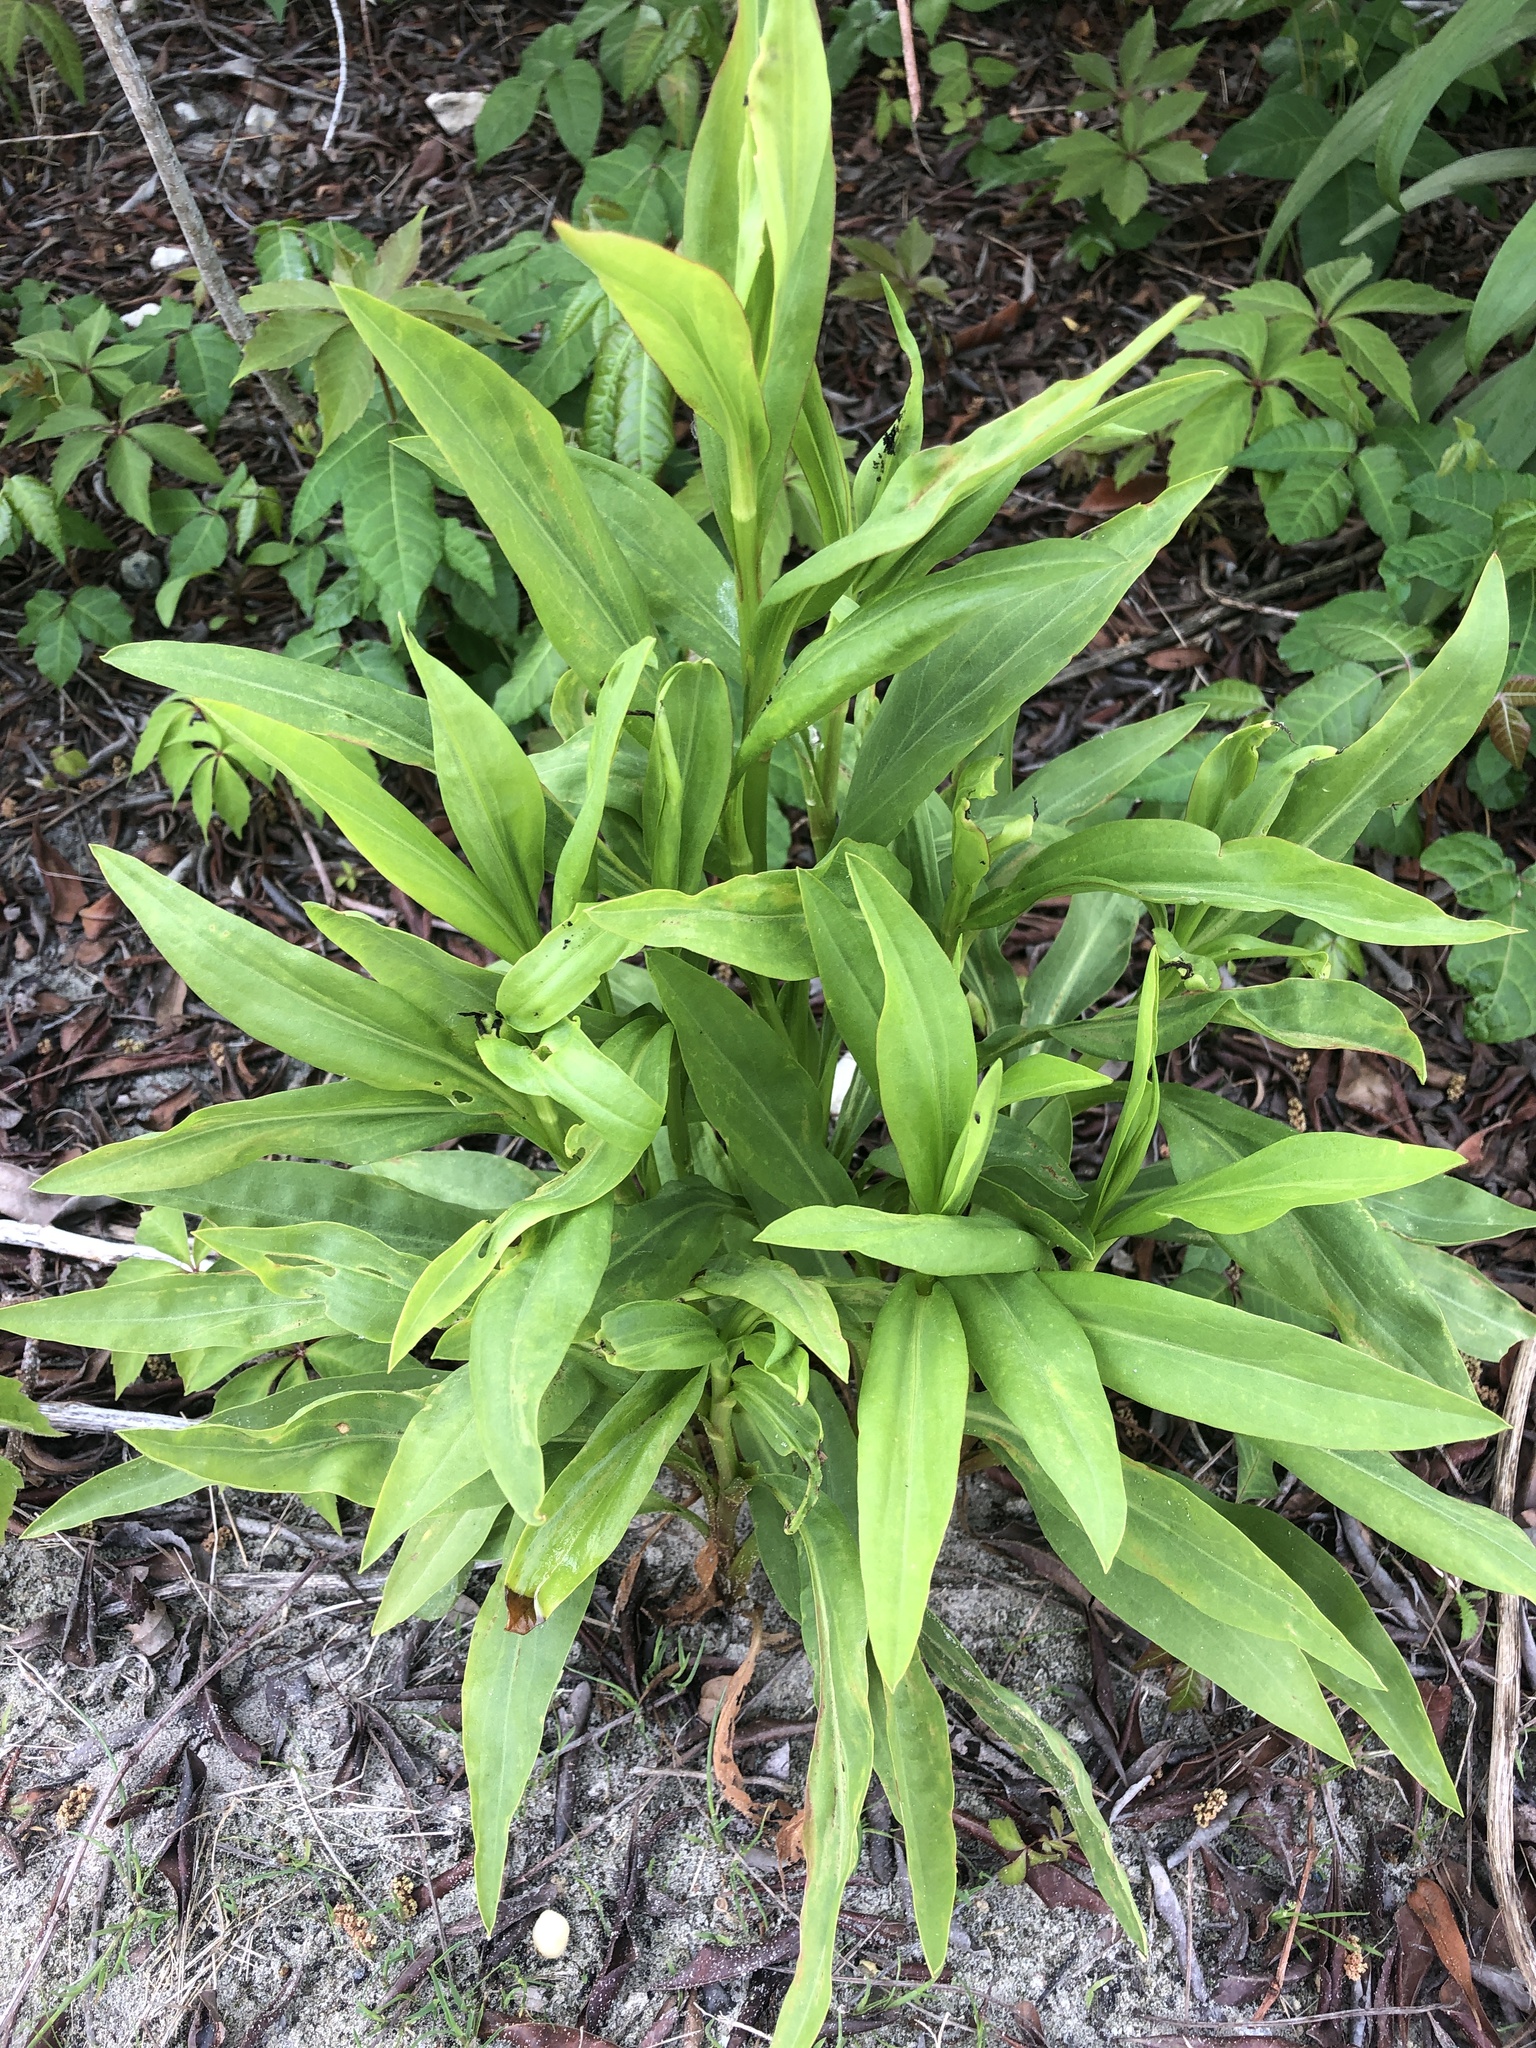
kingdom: Plantae
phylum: Tracheophyta
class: Magnoliopsida
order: Asterales
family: Asteraceae
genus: Solidago
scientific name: Solidago sempervirens
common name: Salt-marsh goldenrod
